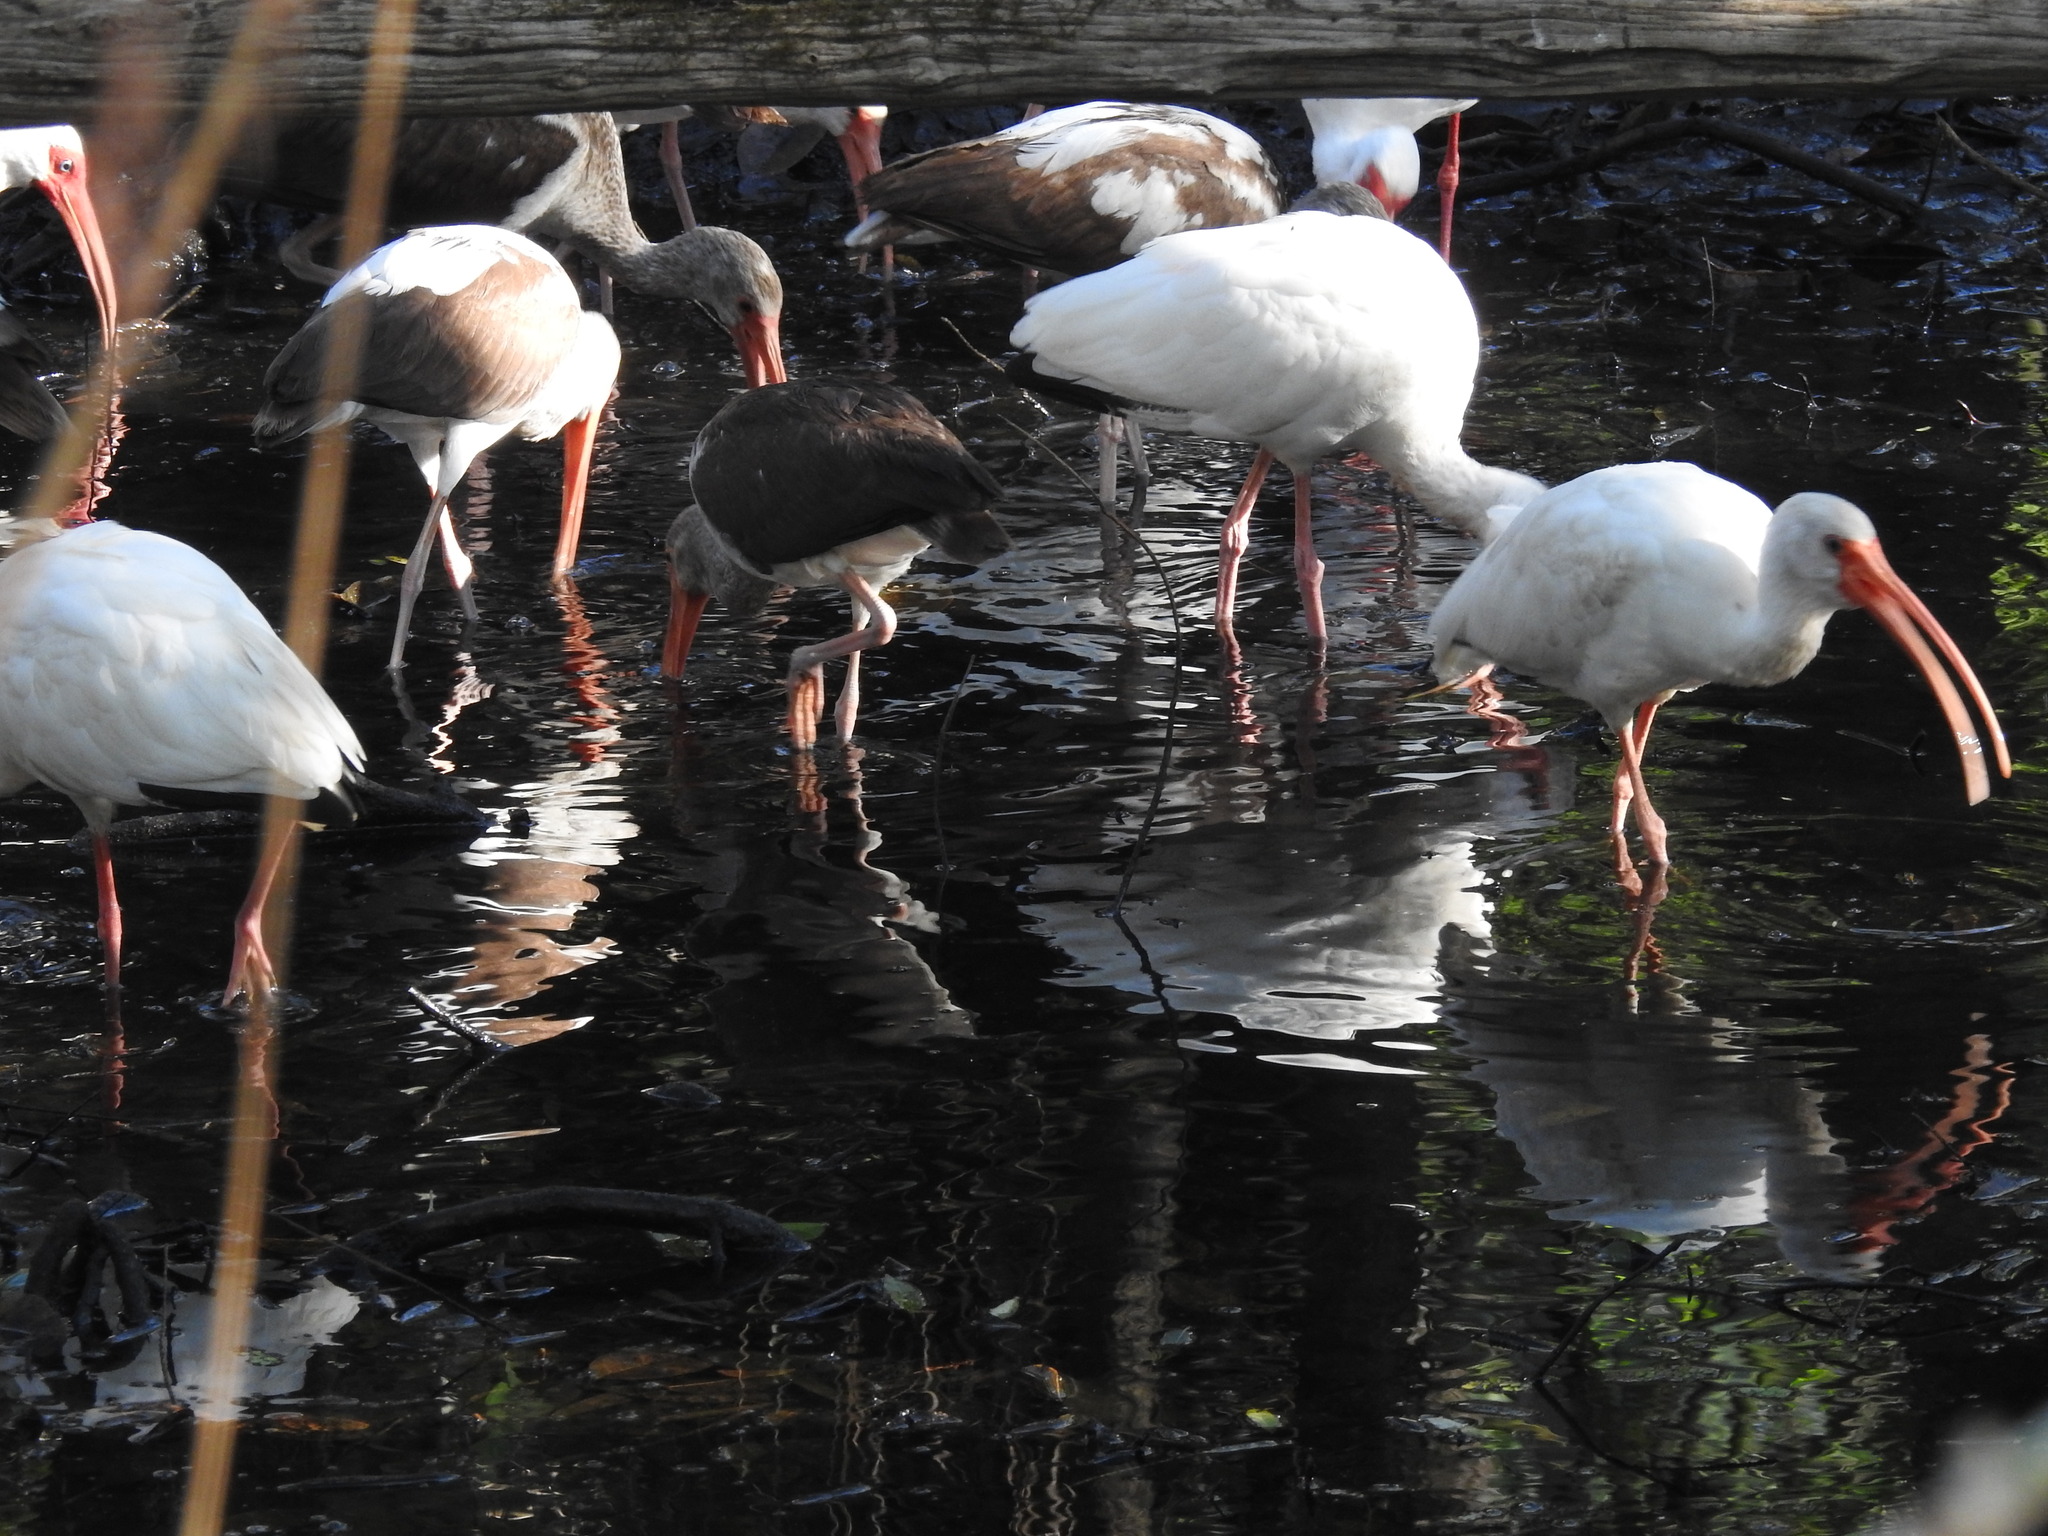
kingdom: Animalia
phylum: Chordata
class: Aves
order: Pelecaniformes
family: Threskiornithidae
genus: Eudocimus
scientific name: Eudocimus albus
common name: White ibis
